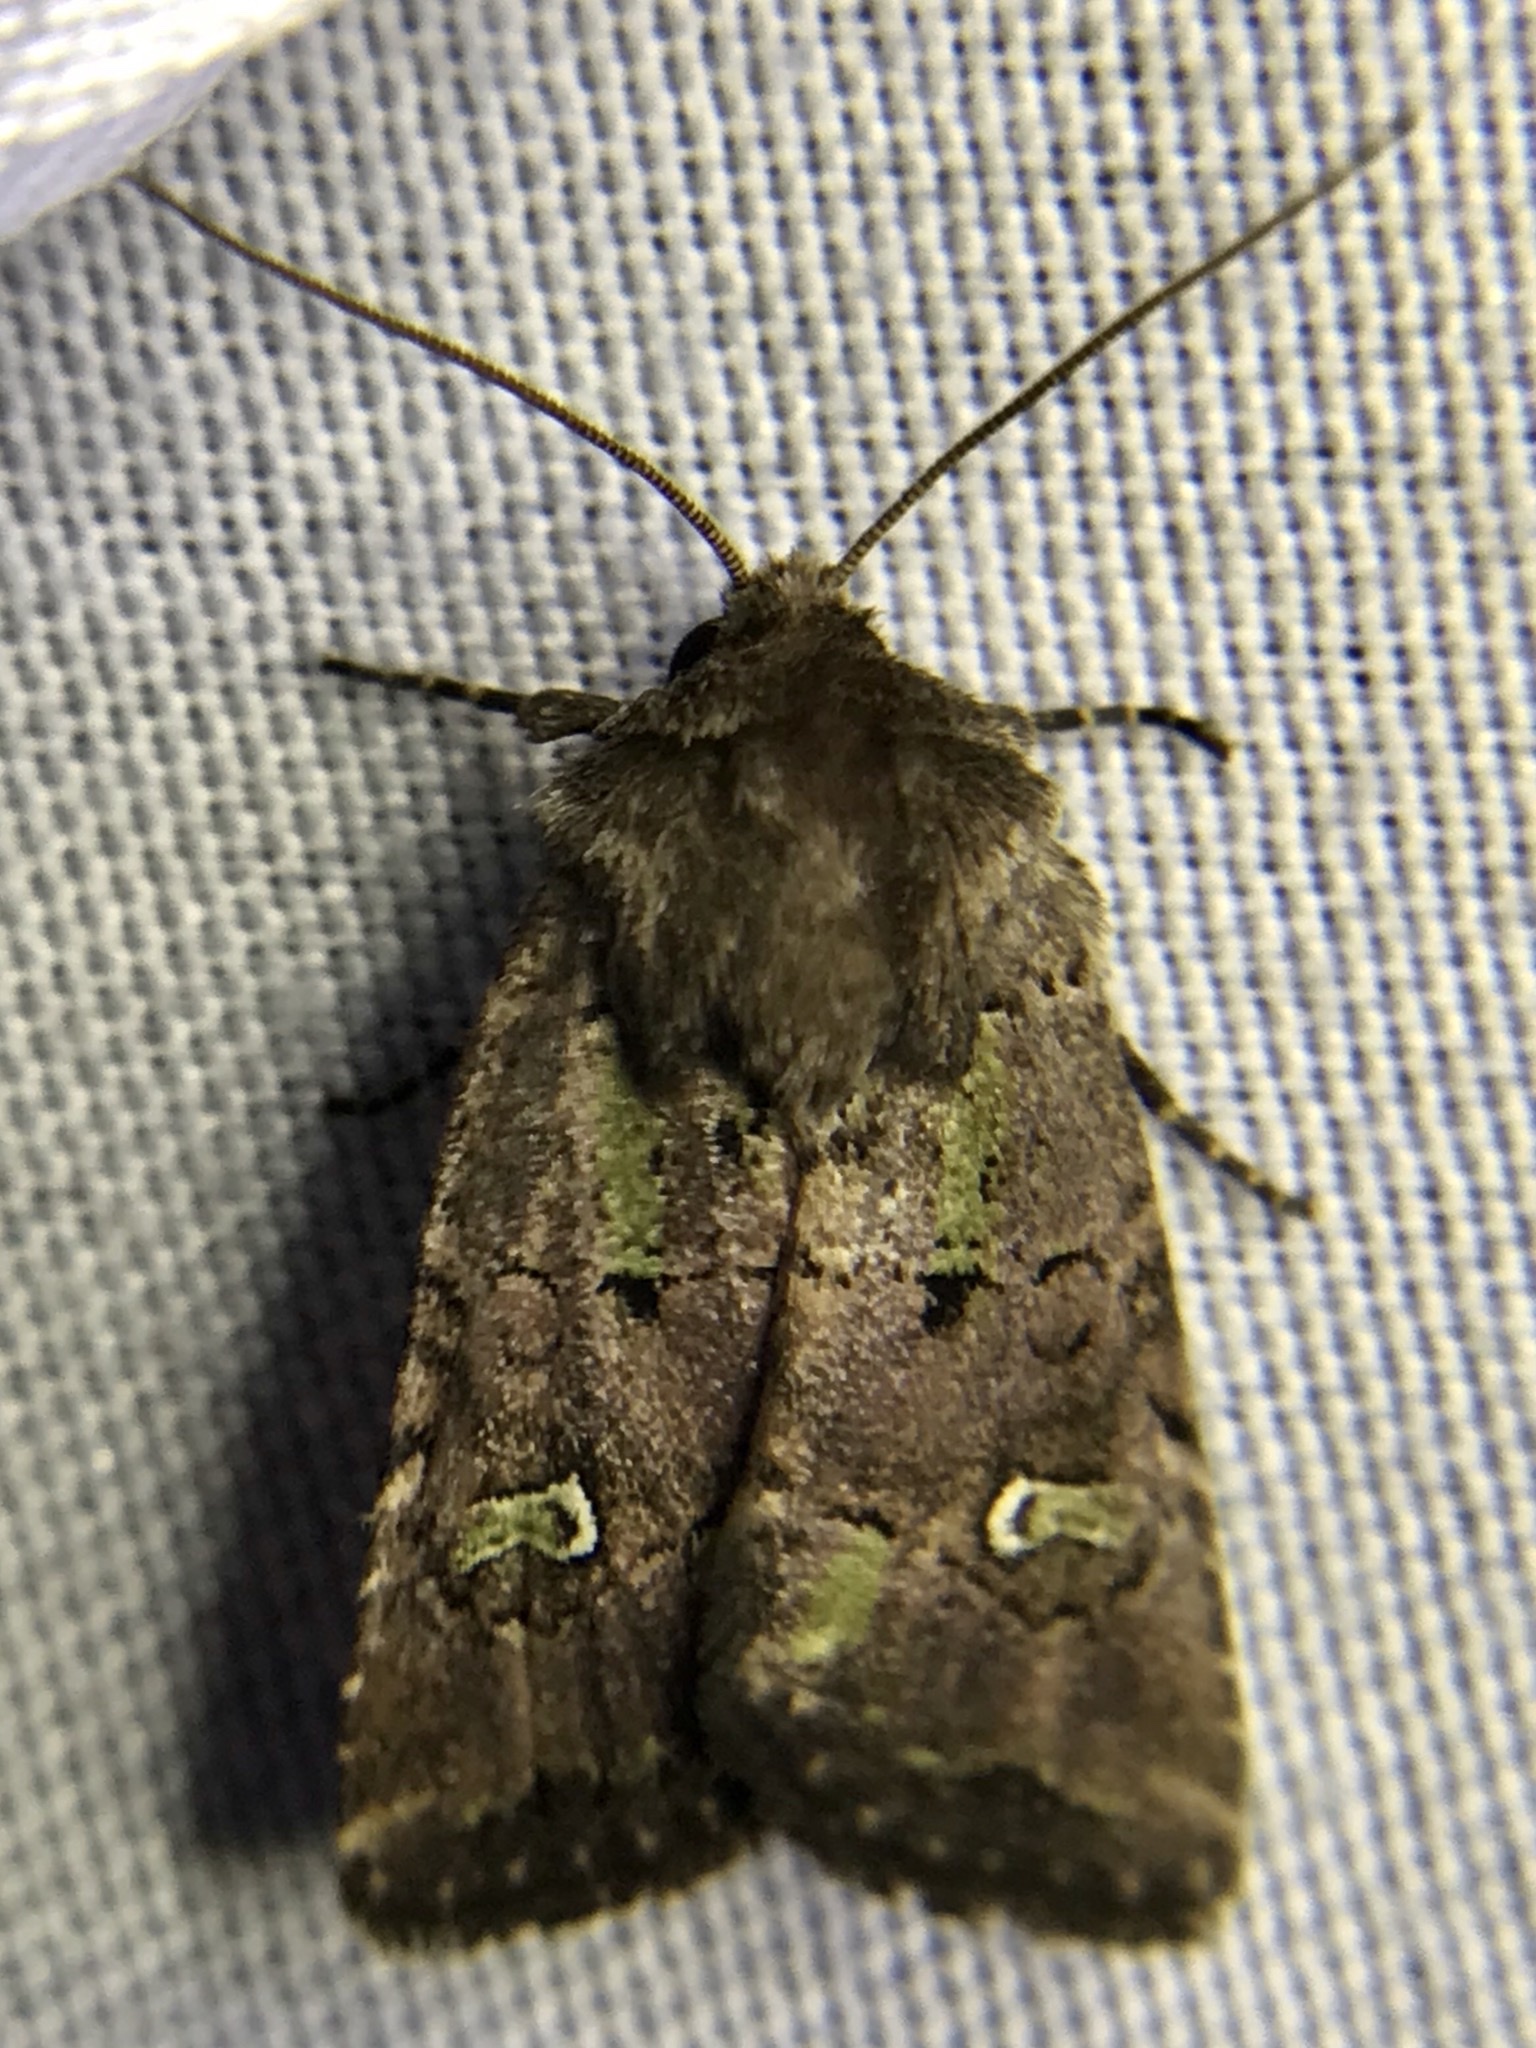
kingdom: Animalia
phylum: Arthropoda
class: Insecta
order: Lepidoptera
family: Noctuidae
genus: Lacinipolia
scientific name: Lacinipolia renigera
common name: Kidney-spotted minor
